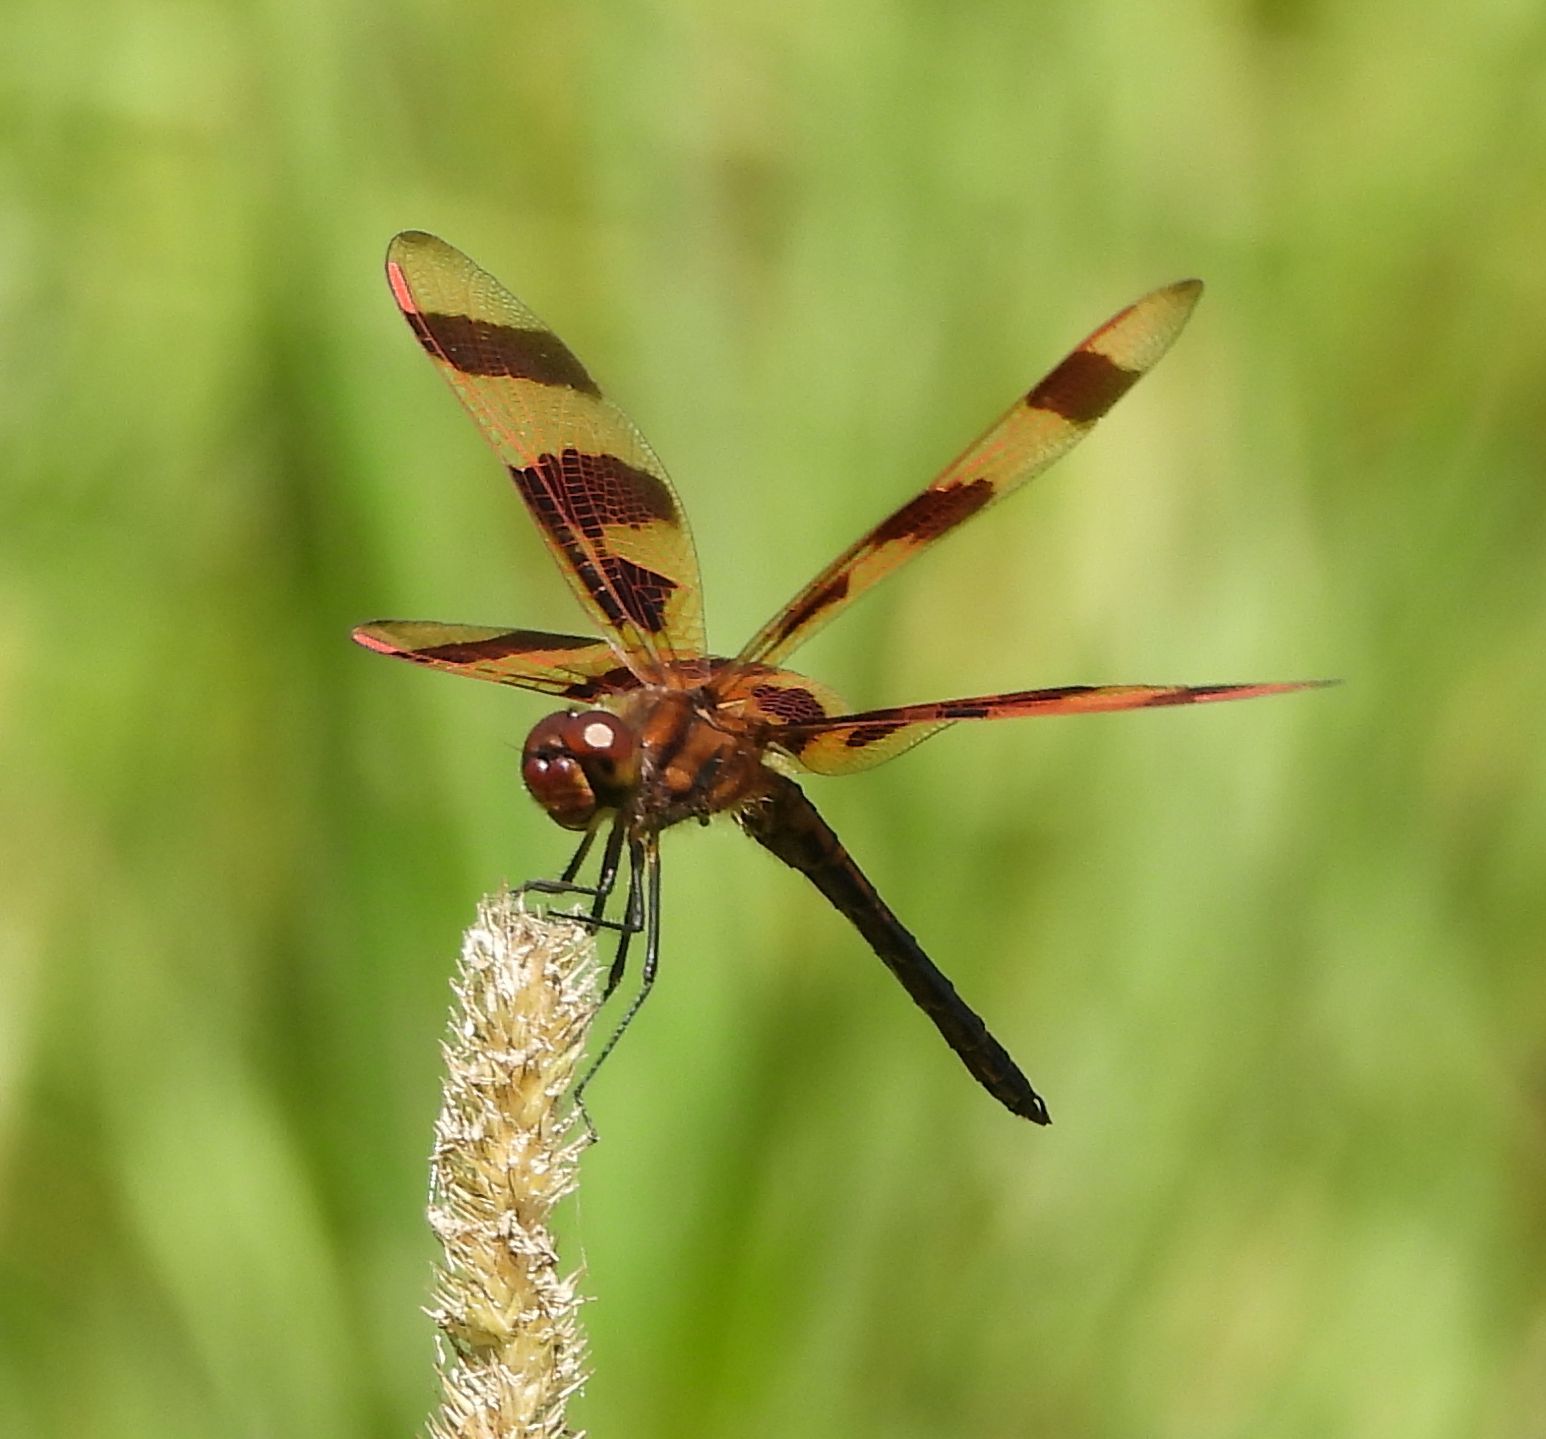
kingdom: Animalia
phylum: Arthropoda
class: Insecta
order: Odonata
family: Libellulidae
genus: Celithemis
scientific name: Celithemis eponina
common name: Halloween pennant
